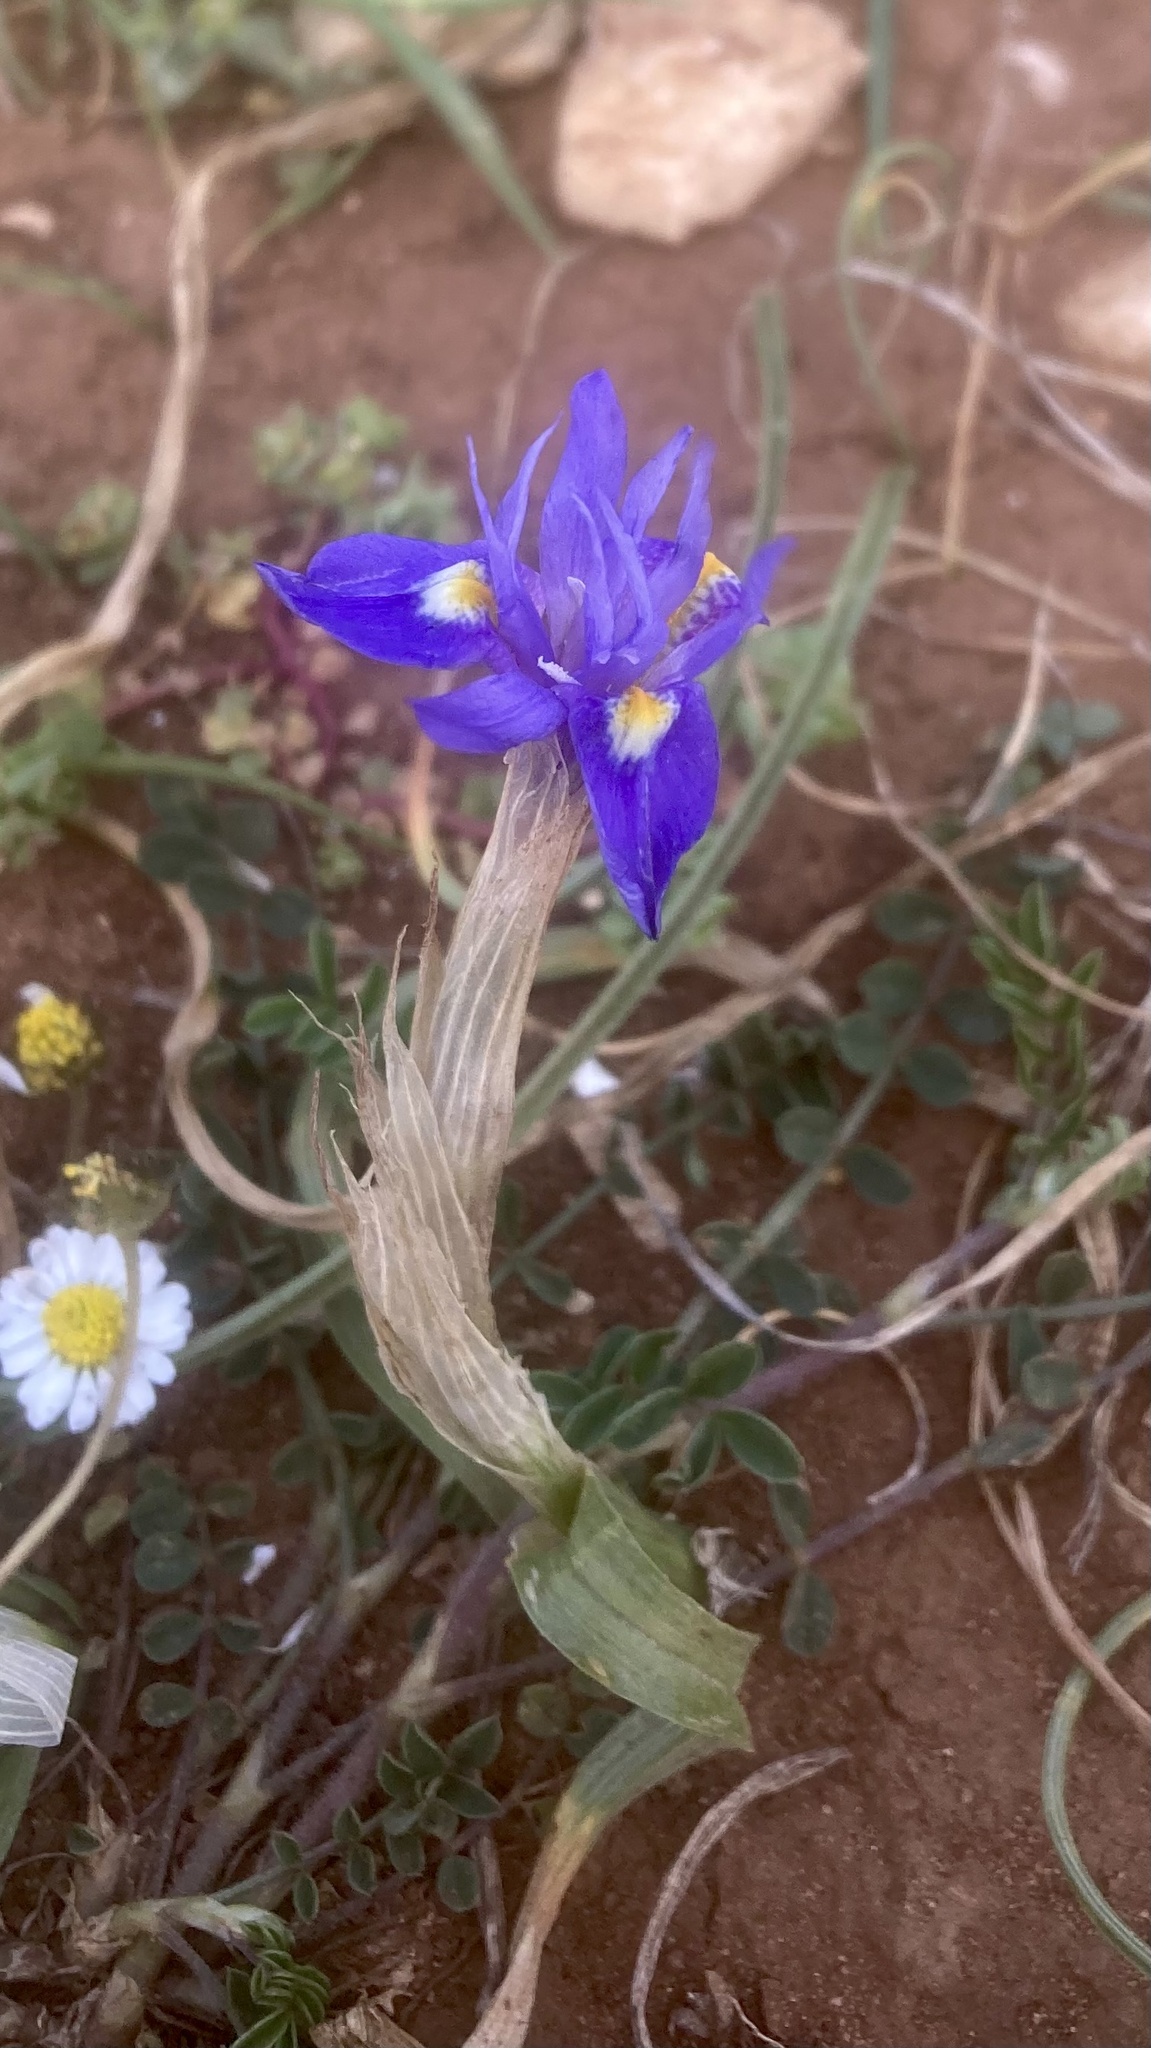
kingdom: Plantae
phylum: Tracheophyta
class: Liliopsida
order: Asparagales
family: Iridaceae
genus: Moraea
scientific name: Moraea sisyrinchium
